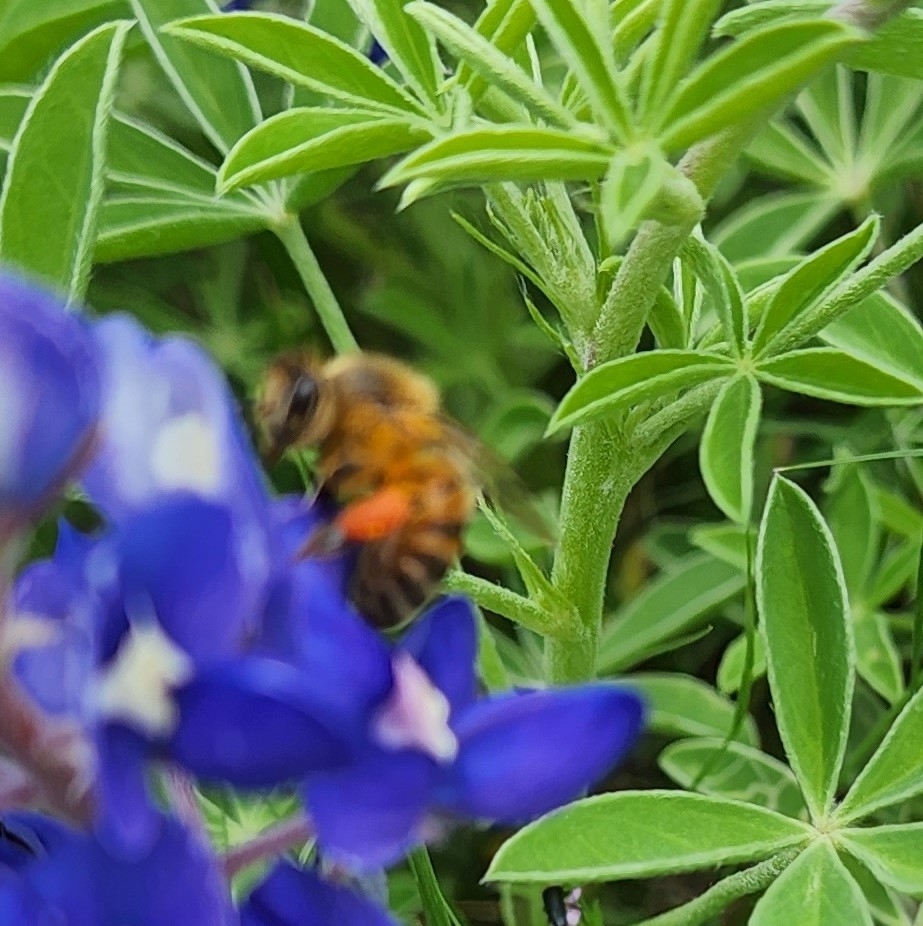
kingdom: Animalia
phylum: Arthropoda
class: Insecta
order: Hymenoptera
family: Apidae
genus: Apis
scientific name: Apis mellifera
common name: Honey bee
